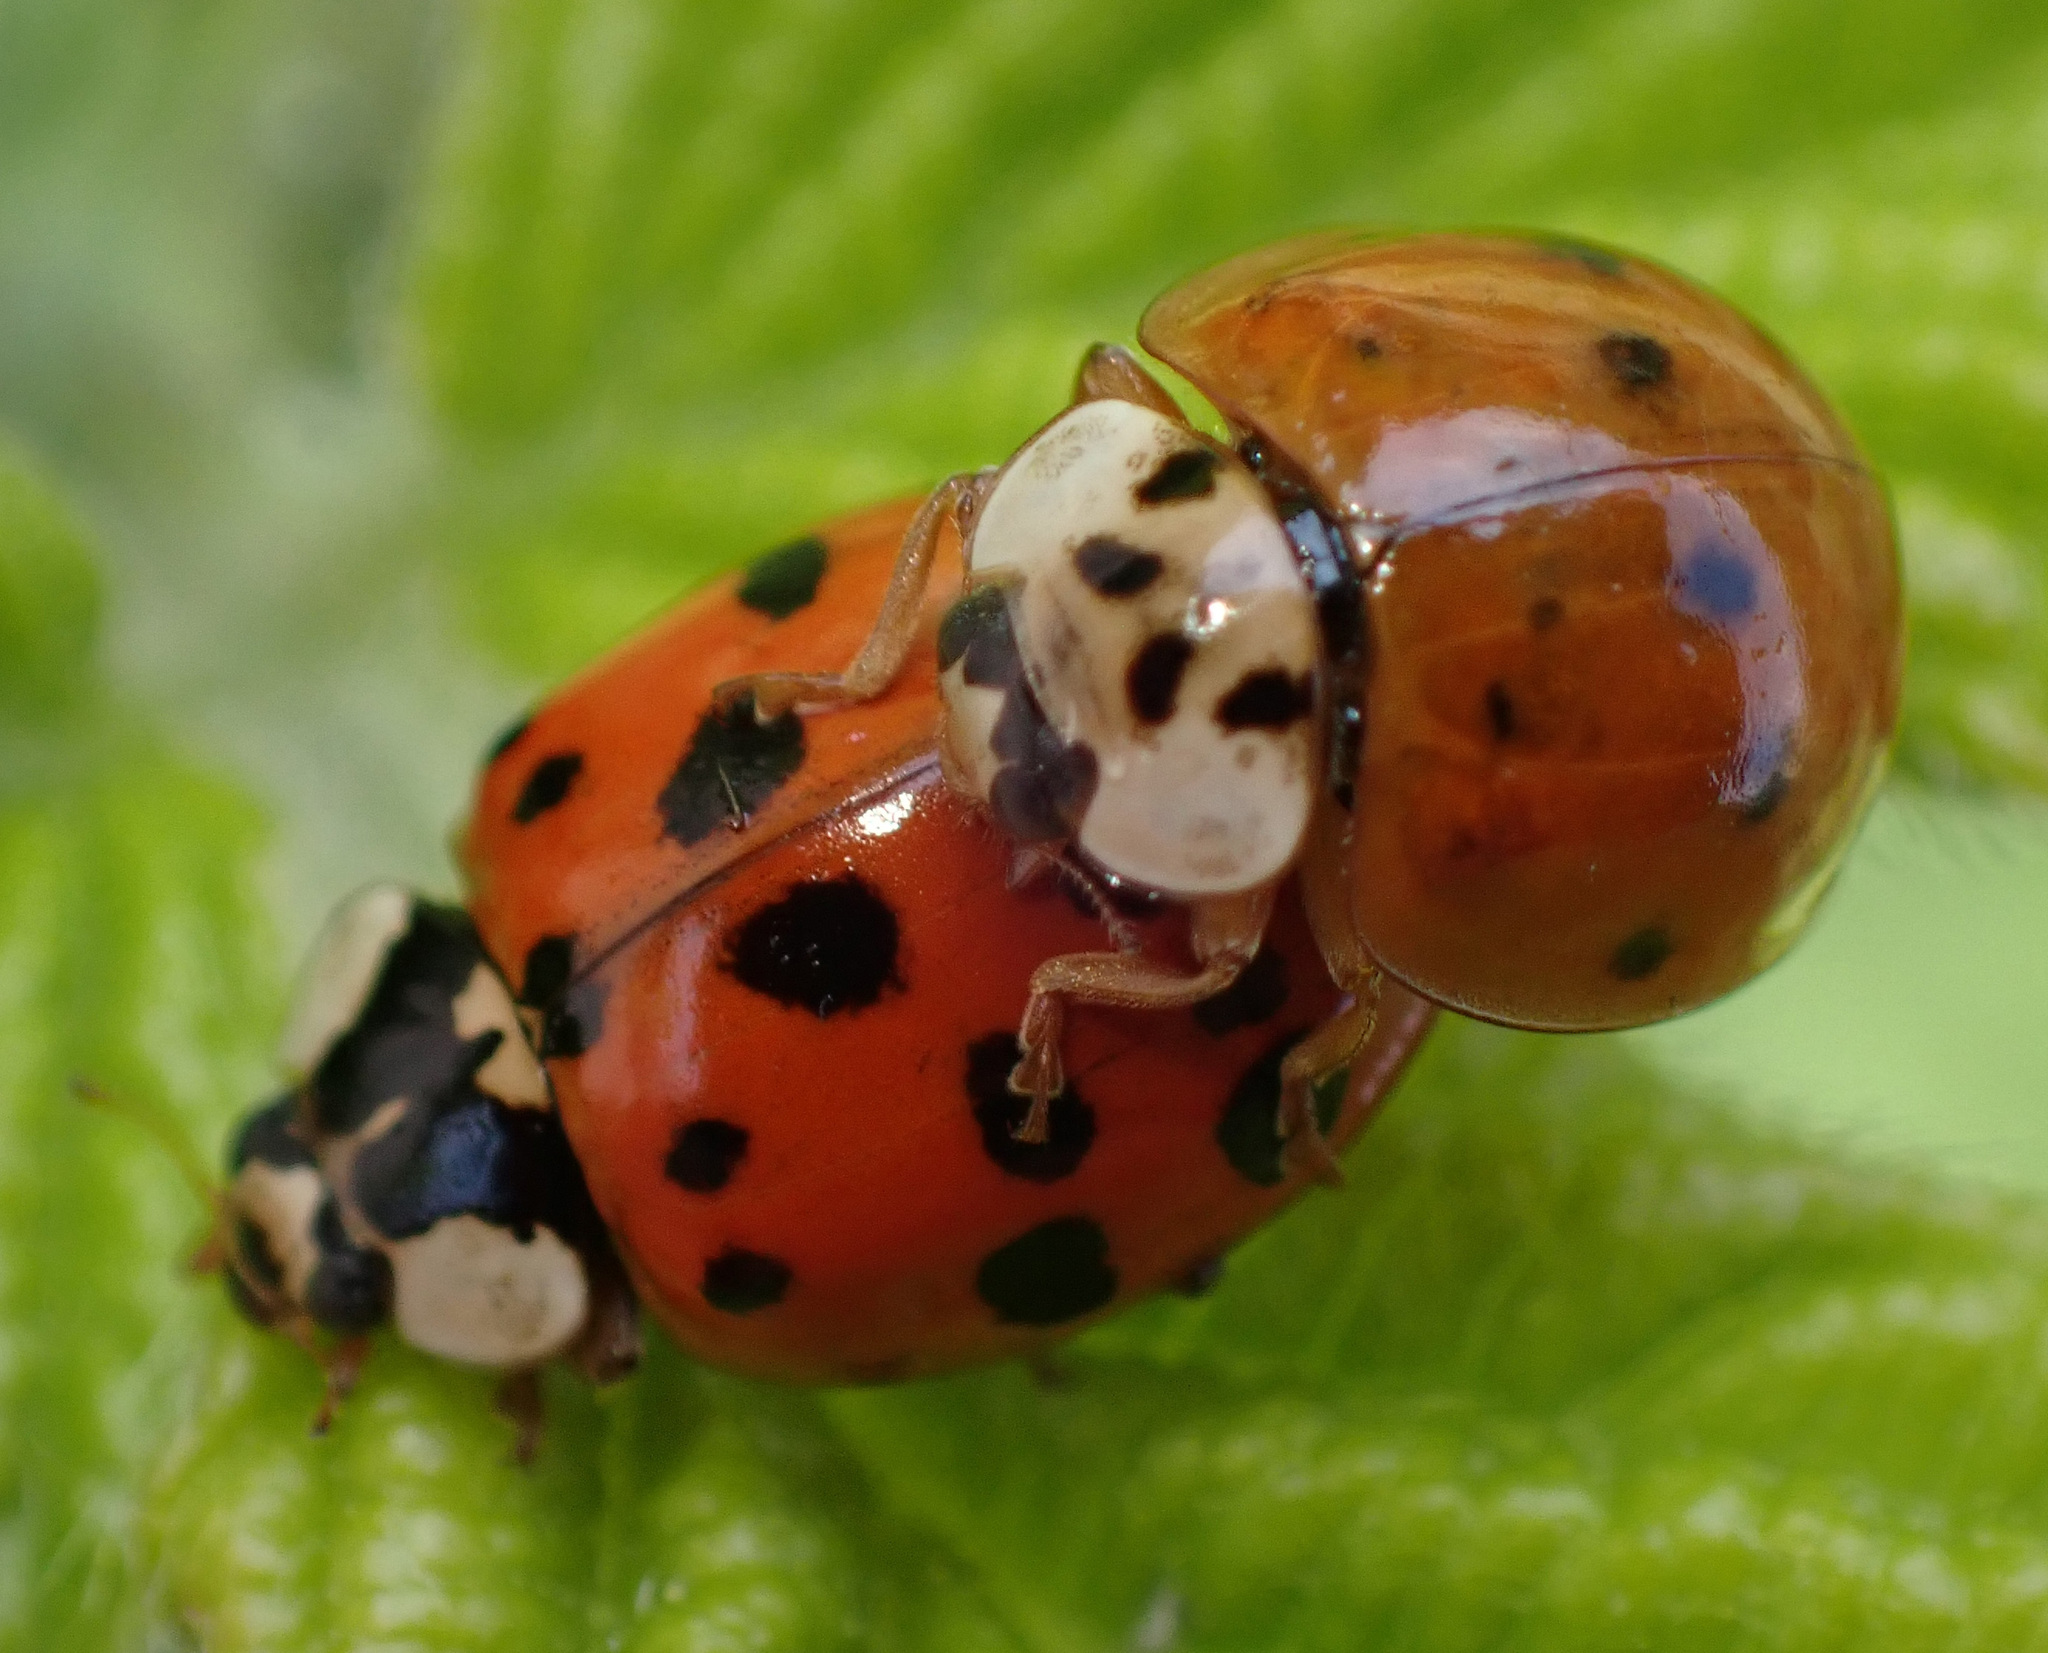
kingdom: Animalia
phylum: Arthropoda
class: Insecta
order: Coleoptera
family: Coccinellidae
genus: Harmonia
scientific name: Harmonia axyridis
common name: Harlequin ladybird
